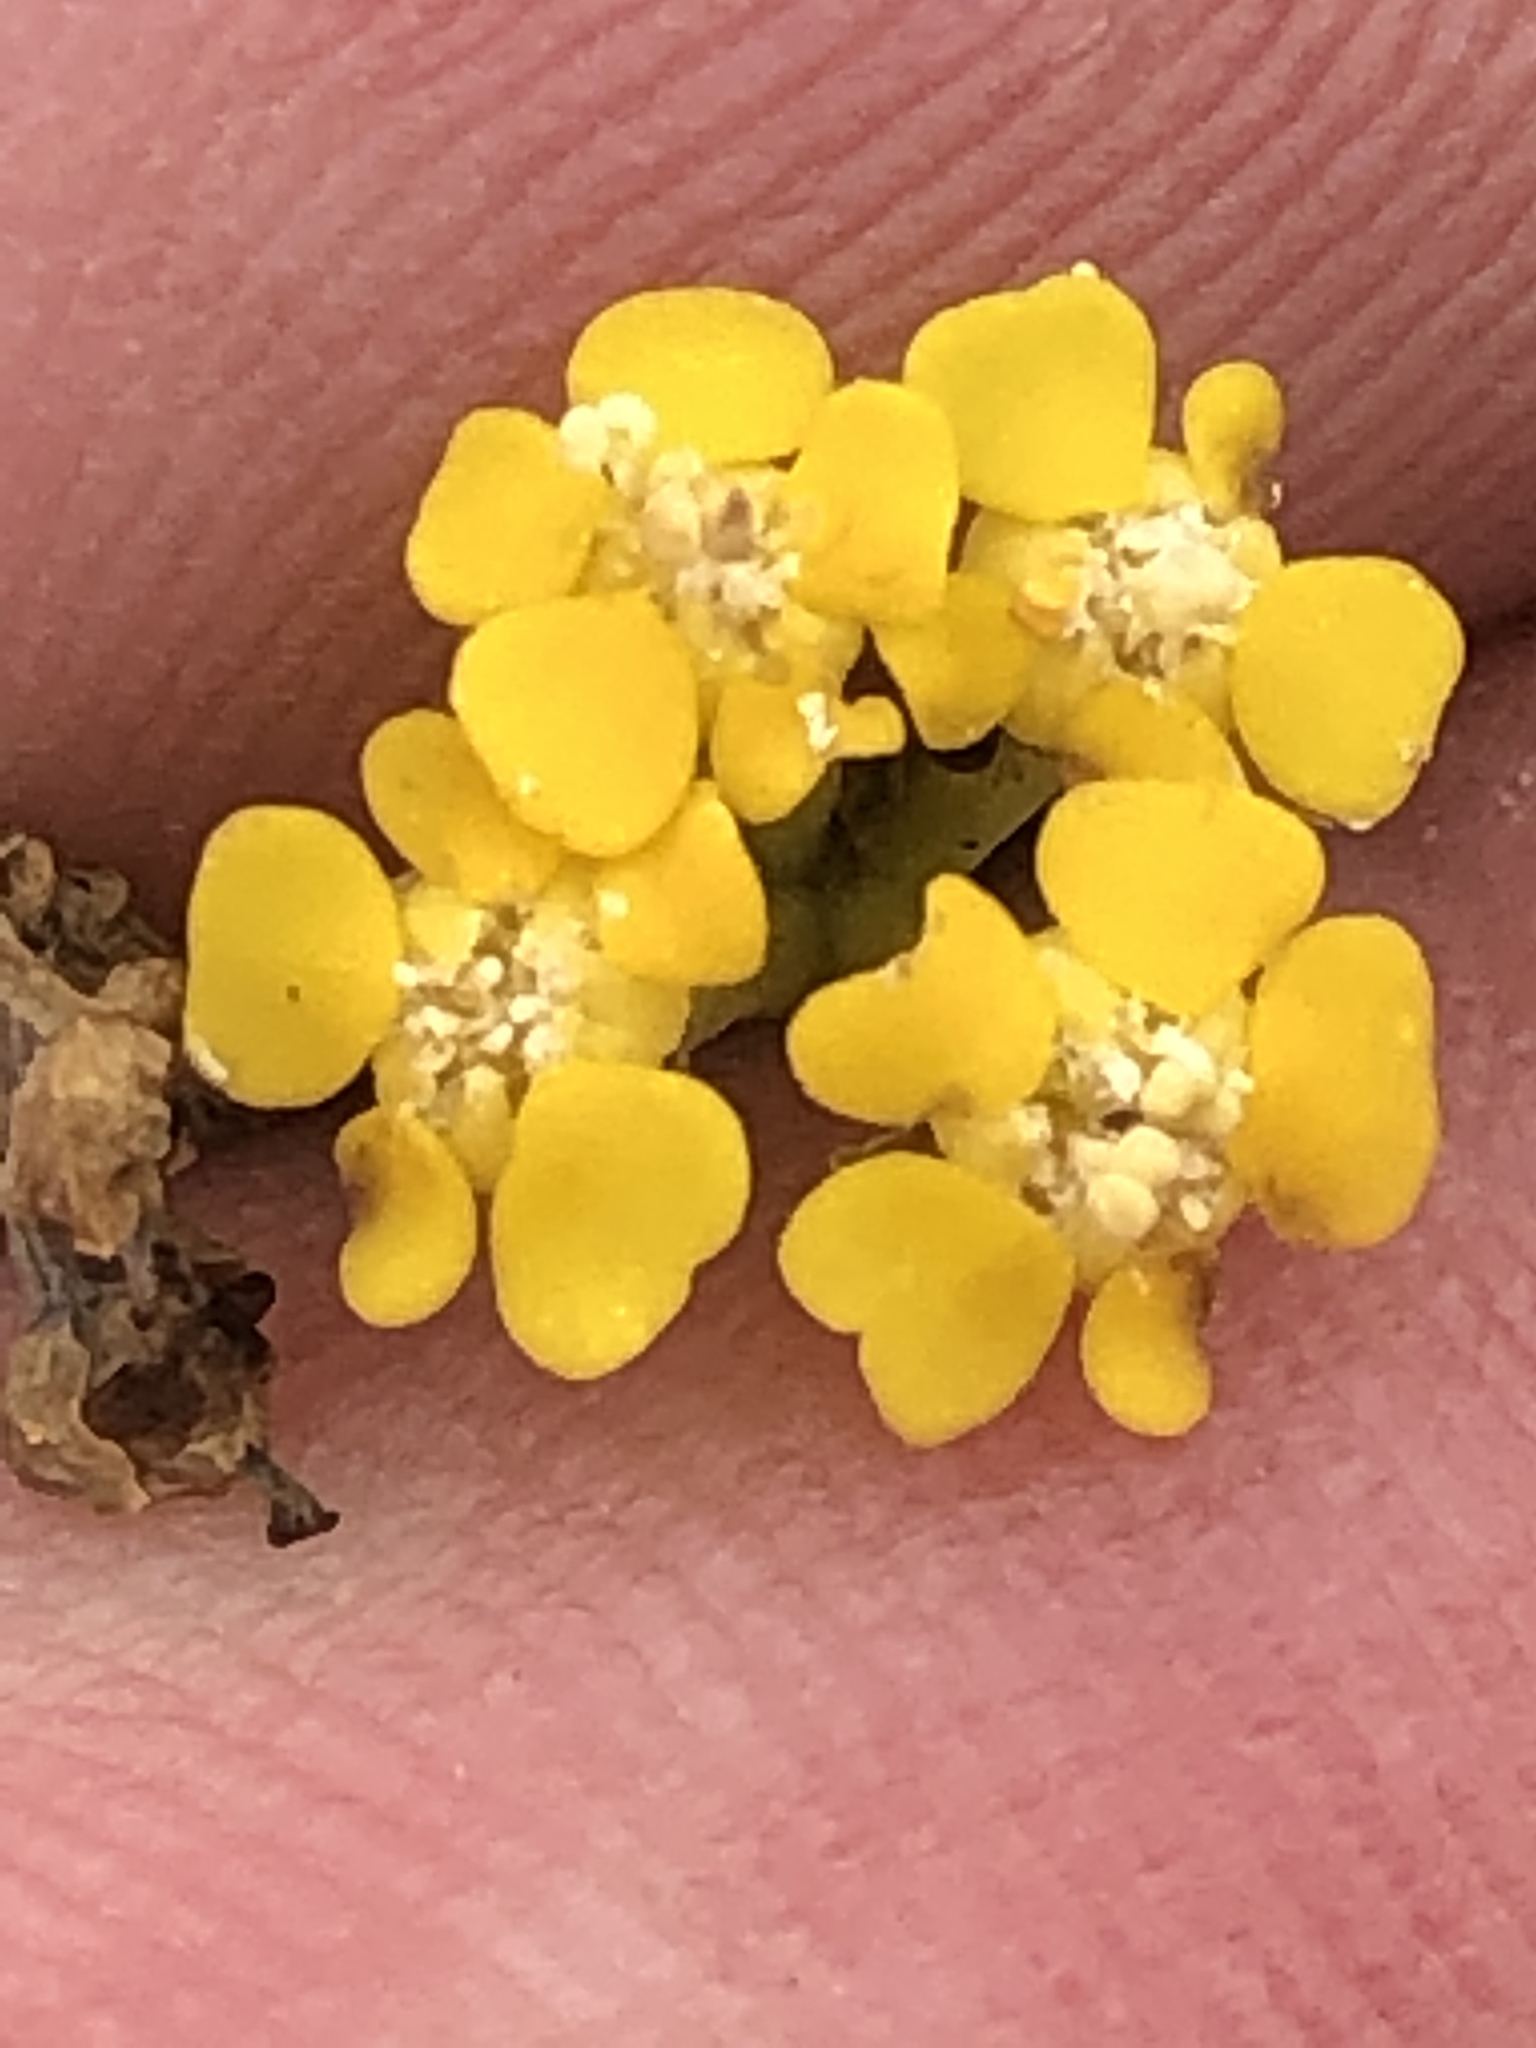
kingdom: Plantae
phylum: Tracheophyta
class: Magnoliopsida
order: Malpighiales
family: Euphorbiaceae
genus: Euphorbia
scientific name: Euphorbia mauritanica
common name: Jackal's-food
